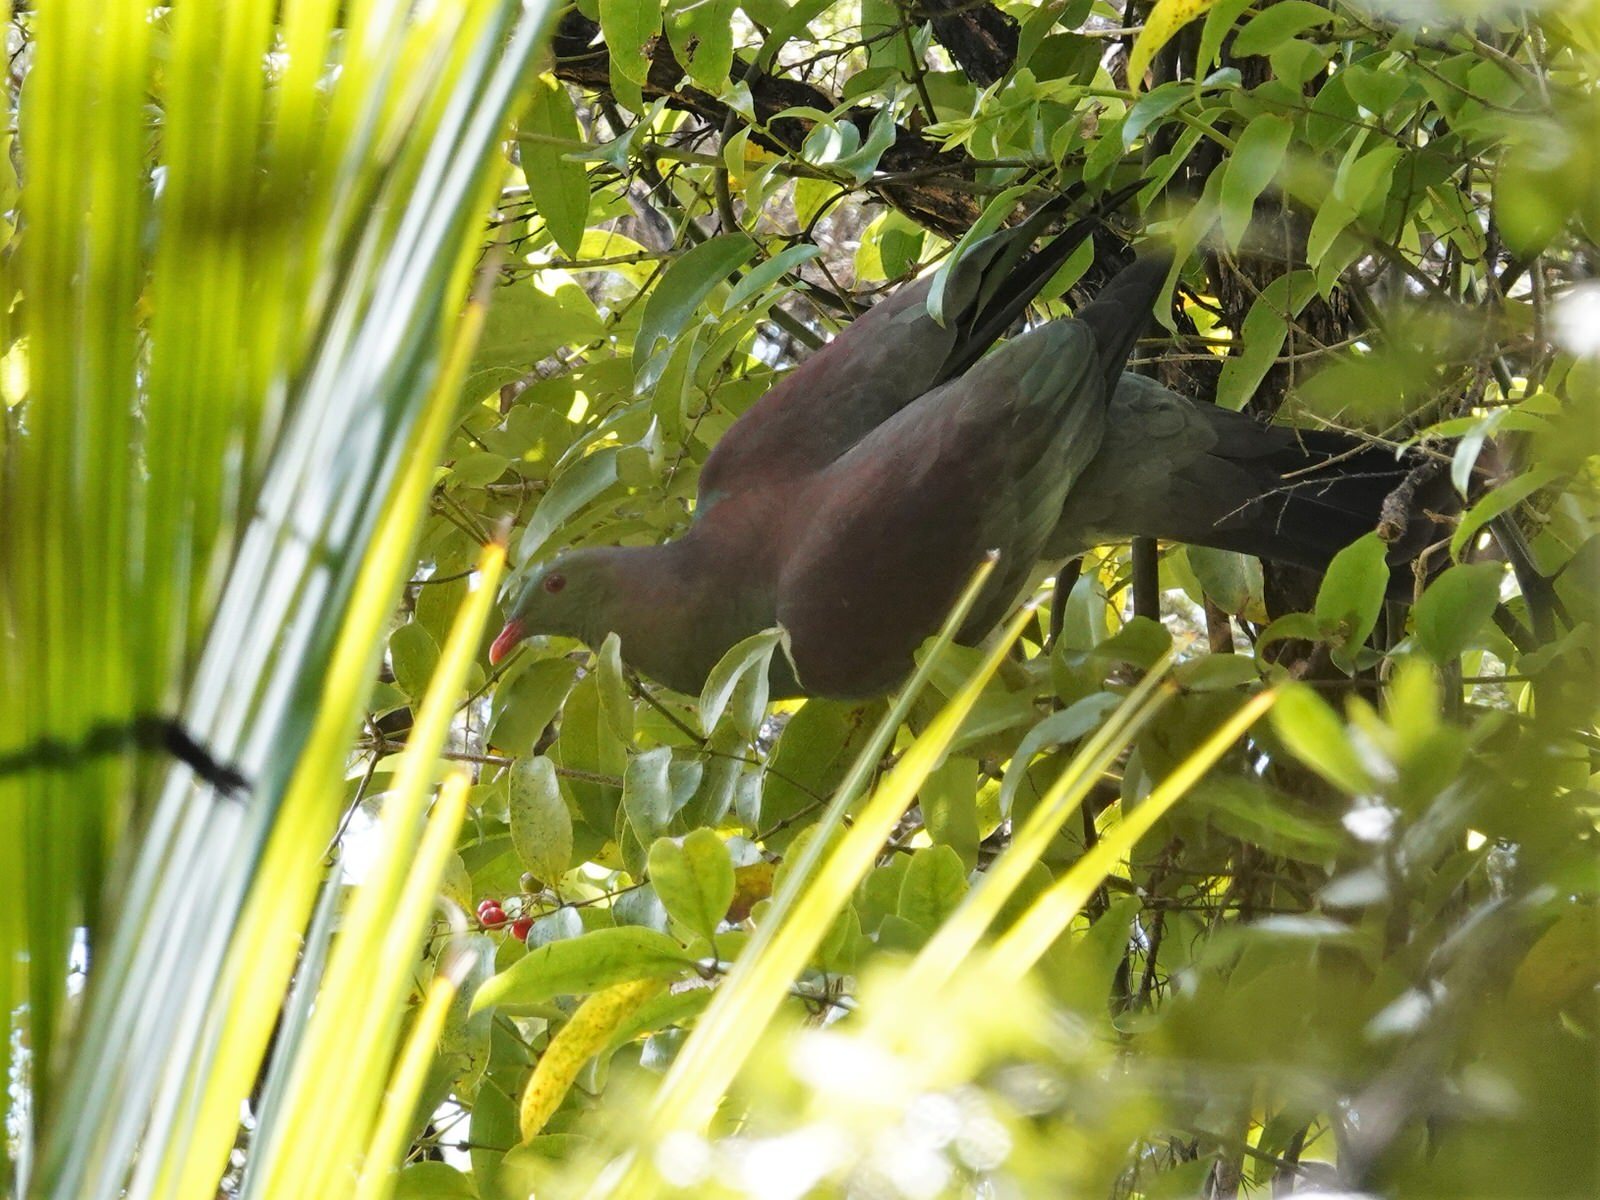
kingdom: Animalia
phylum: Chordata
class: Aves
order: Columbiformes
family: Columbidae
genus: Hemiphaga
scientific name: Hemiphaga novaeseelandiae
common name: New zealand pigeon
